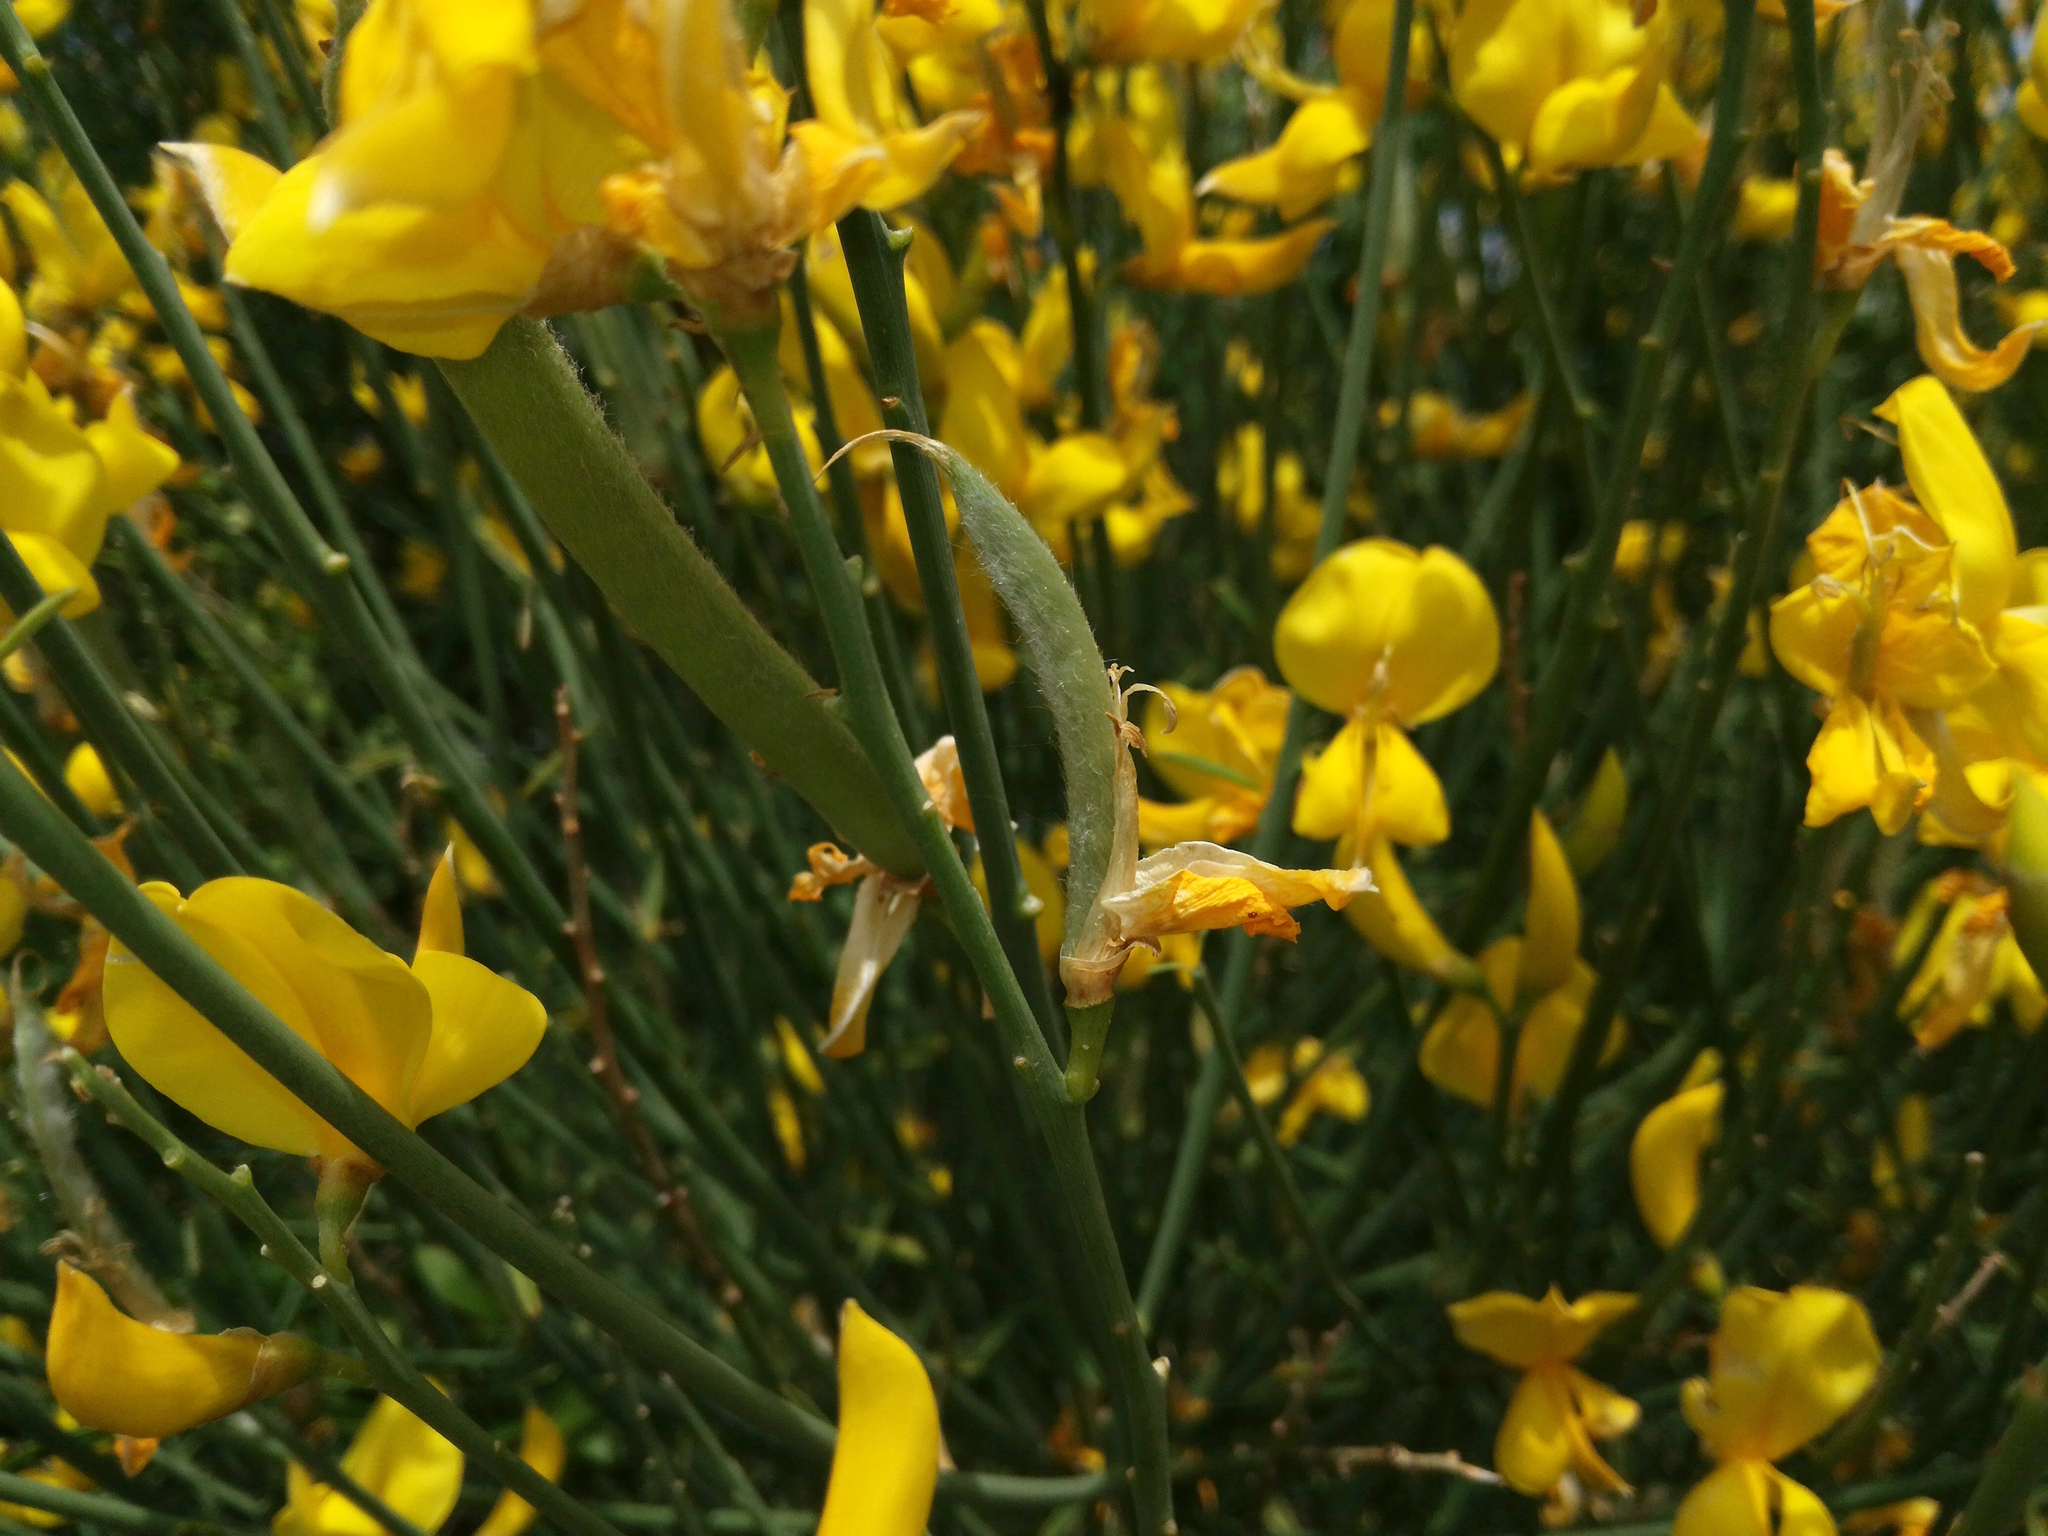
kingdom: Plantae
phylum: Tracheophyta
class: Magnoliopsida
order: Fabales
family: Fabaceae
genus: Spartium
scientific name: Spartium junceum
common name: Spanish broom
